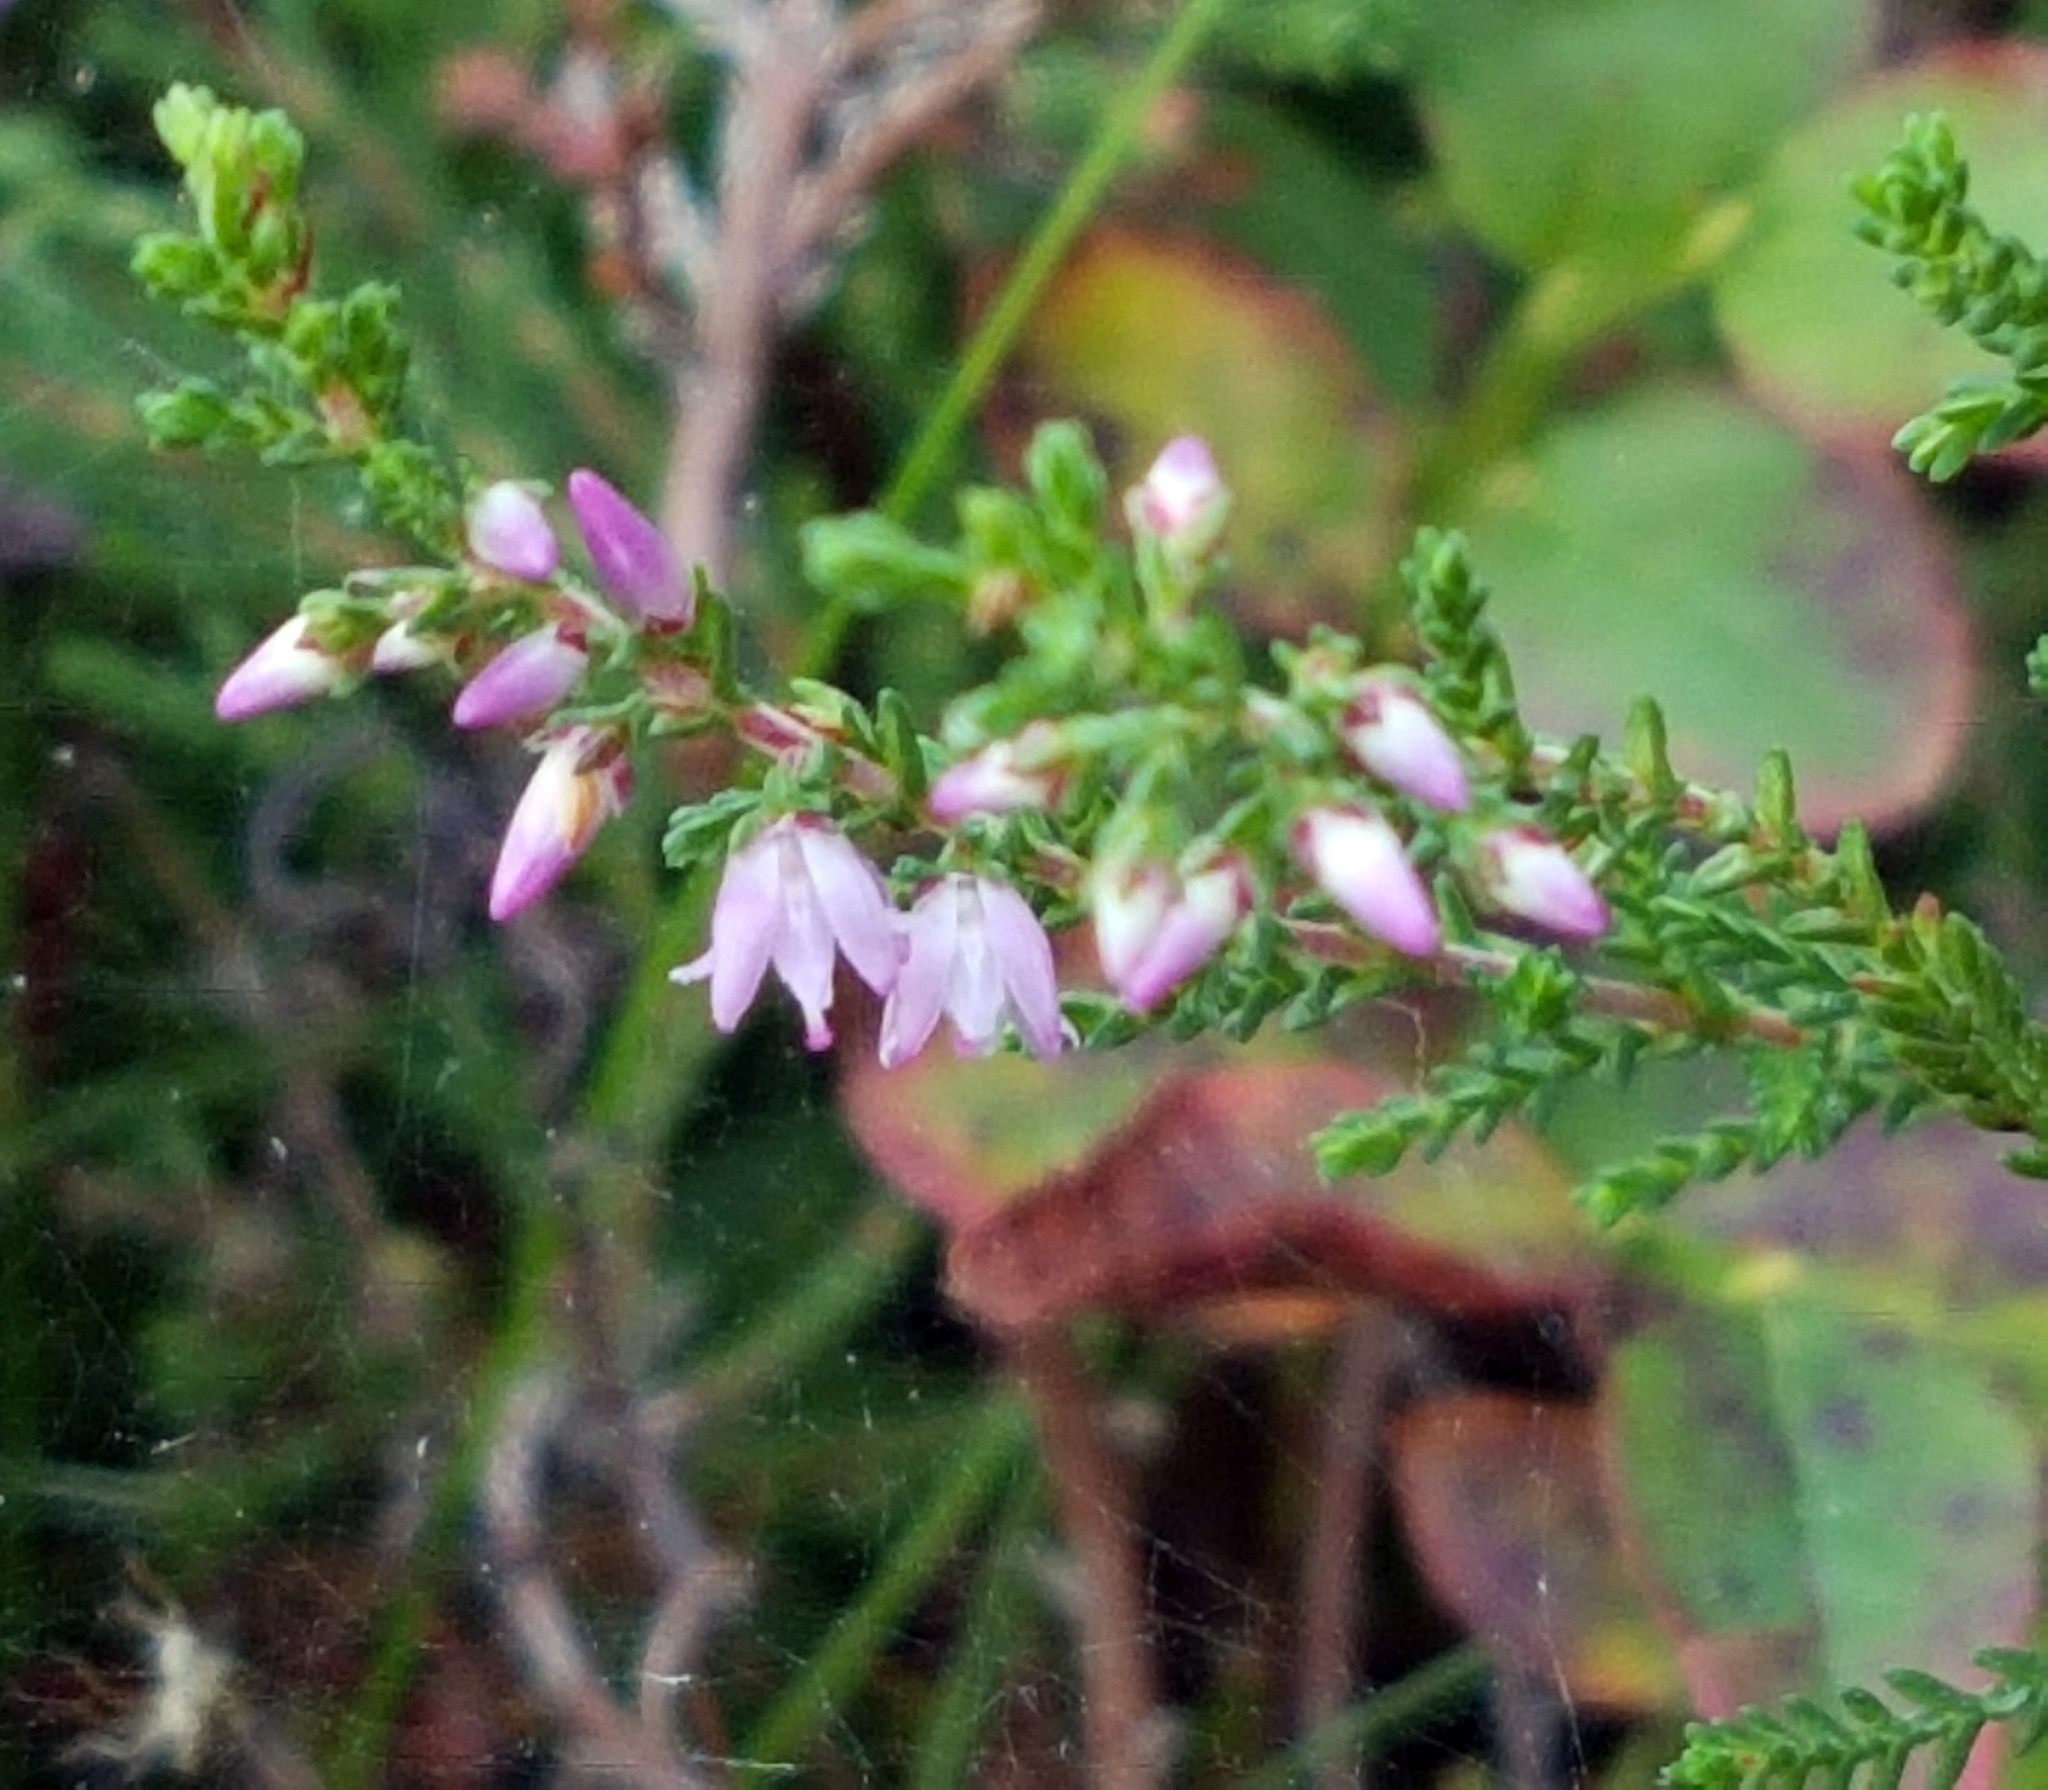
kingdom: Plantae
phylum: Tracheophyta
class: Magnoliopsida
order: Ericales
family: Ericaceae
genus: Calluna
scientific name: Calluna vulgaris
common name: Heather
